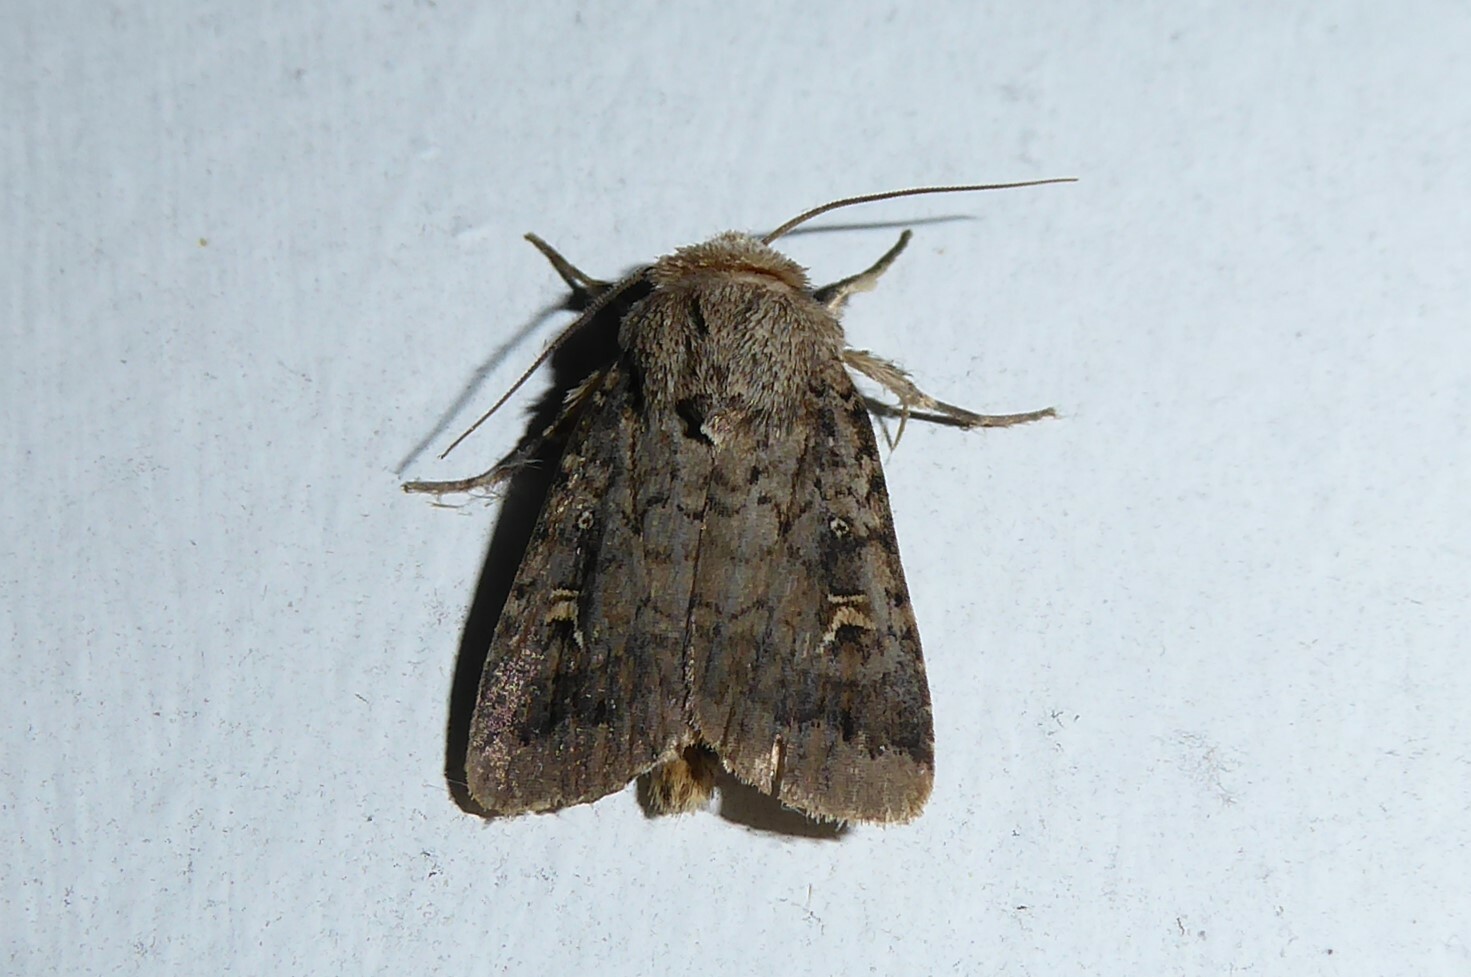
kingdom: Animalia
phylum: Arthropoda
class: Insecta
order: Lepidoptera
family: Noctuidae
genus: Proteuxoa
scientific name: Proteuxoa tetronycha
